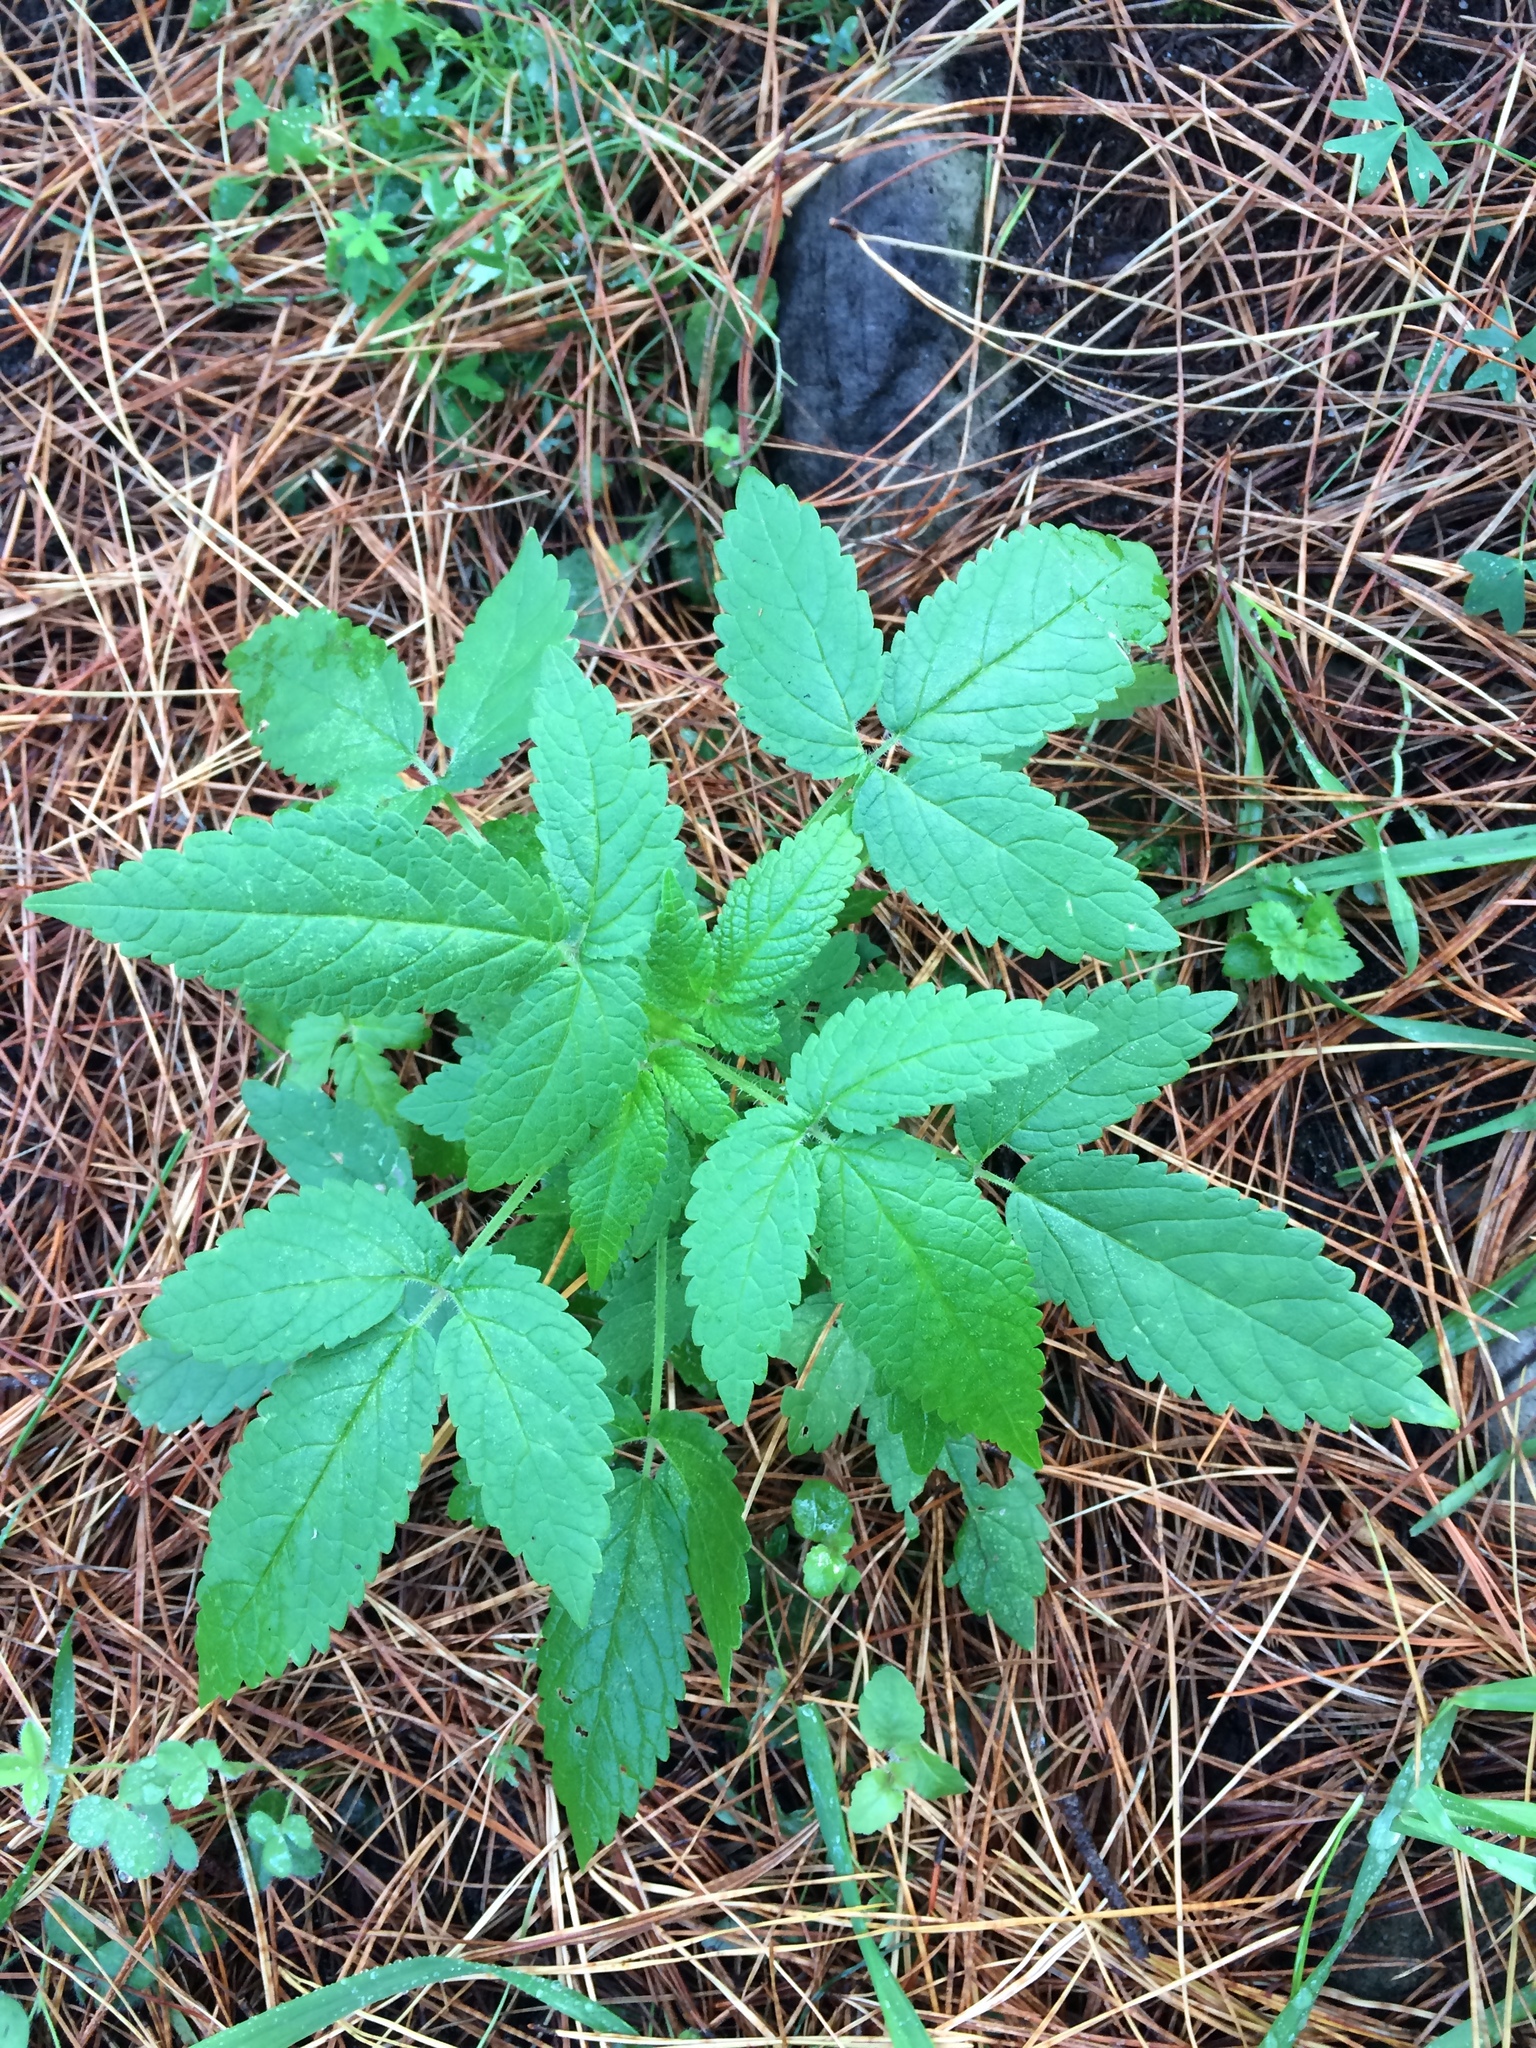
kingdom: Plantae
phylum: Tracheophyta
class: Magnoliopsida
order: Lamiales
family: Lamiaceae
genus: Cedronella
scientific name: Cedronella canariensis
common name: Canary islands balm
